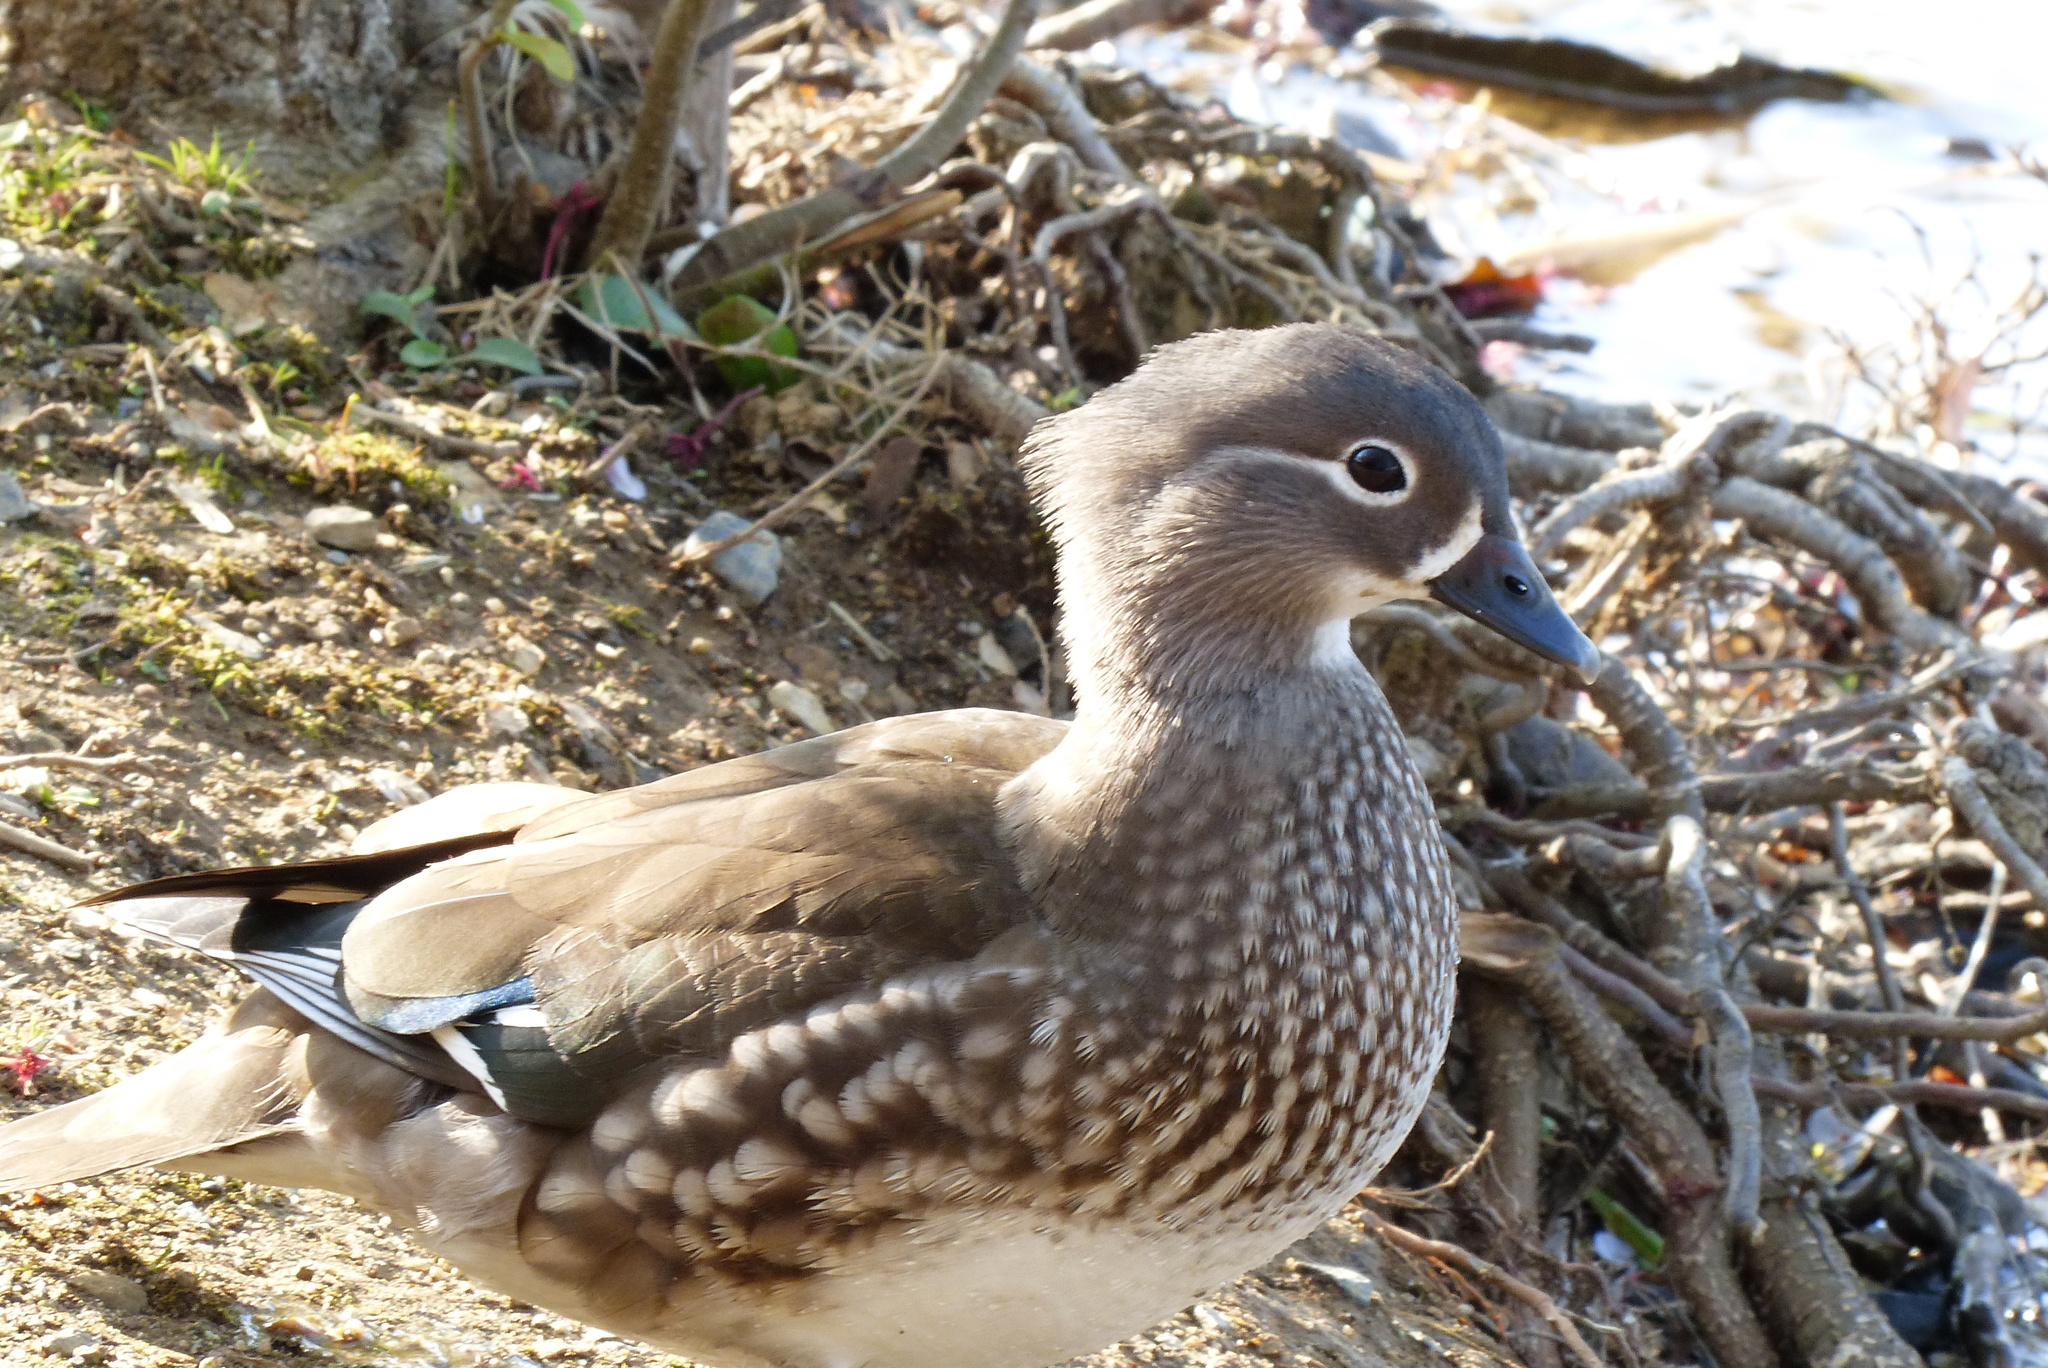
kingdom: Animalia
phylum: Chordata
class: Aves
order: Anseriformes
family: Anatidae
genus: Aix
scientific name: Aix galericulata
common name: Mandarin duck
